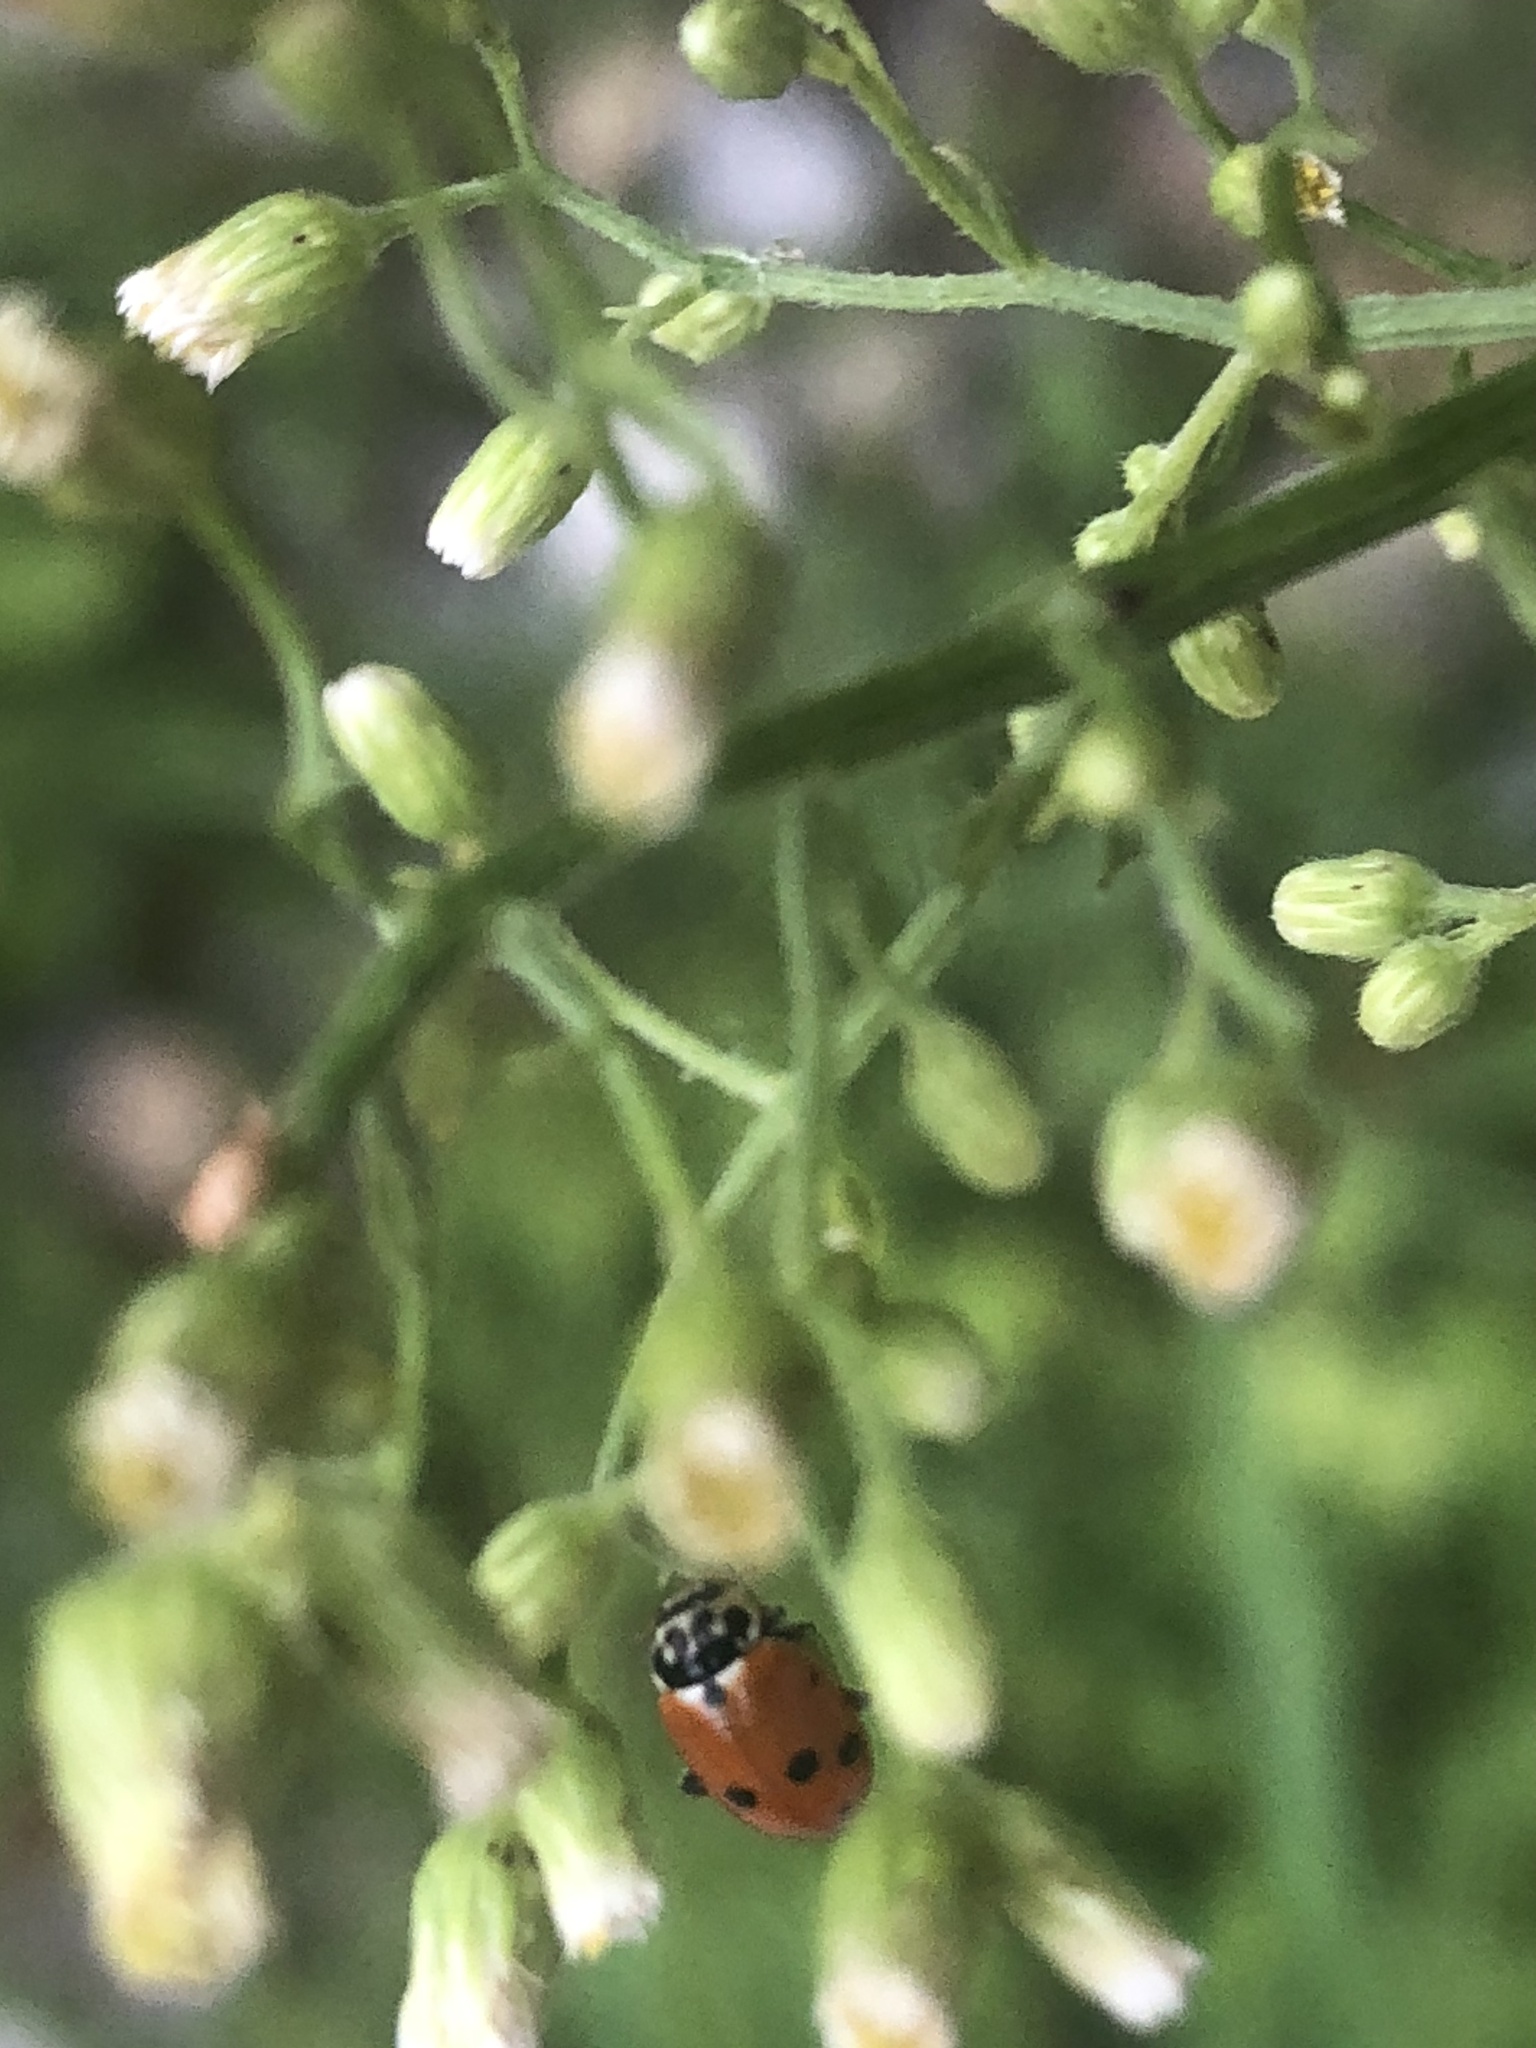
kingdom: Animalia
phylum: Arthropoda
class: Insecta
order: Coleoptera
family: Coccinellidae
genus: Hippodamia
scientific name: Hippodamia variegata
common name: Ladybird beetle
